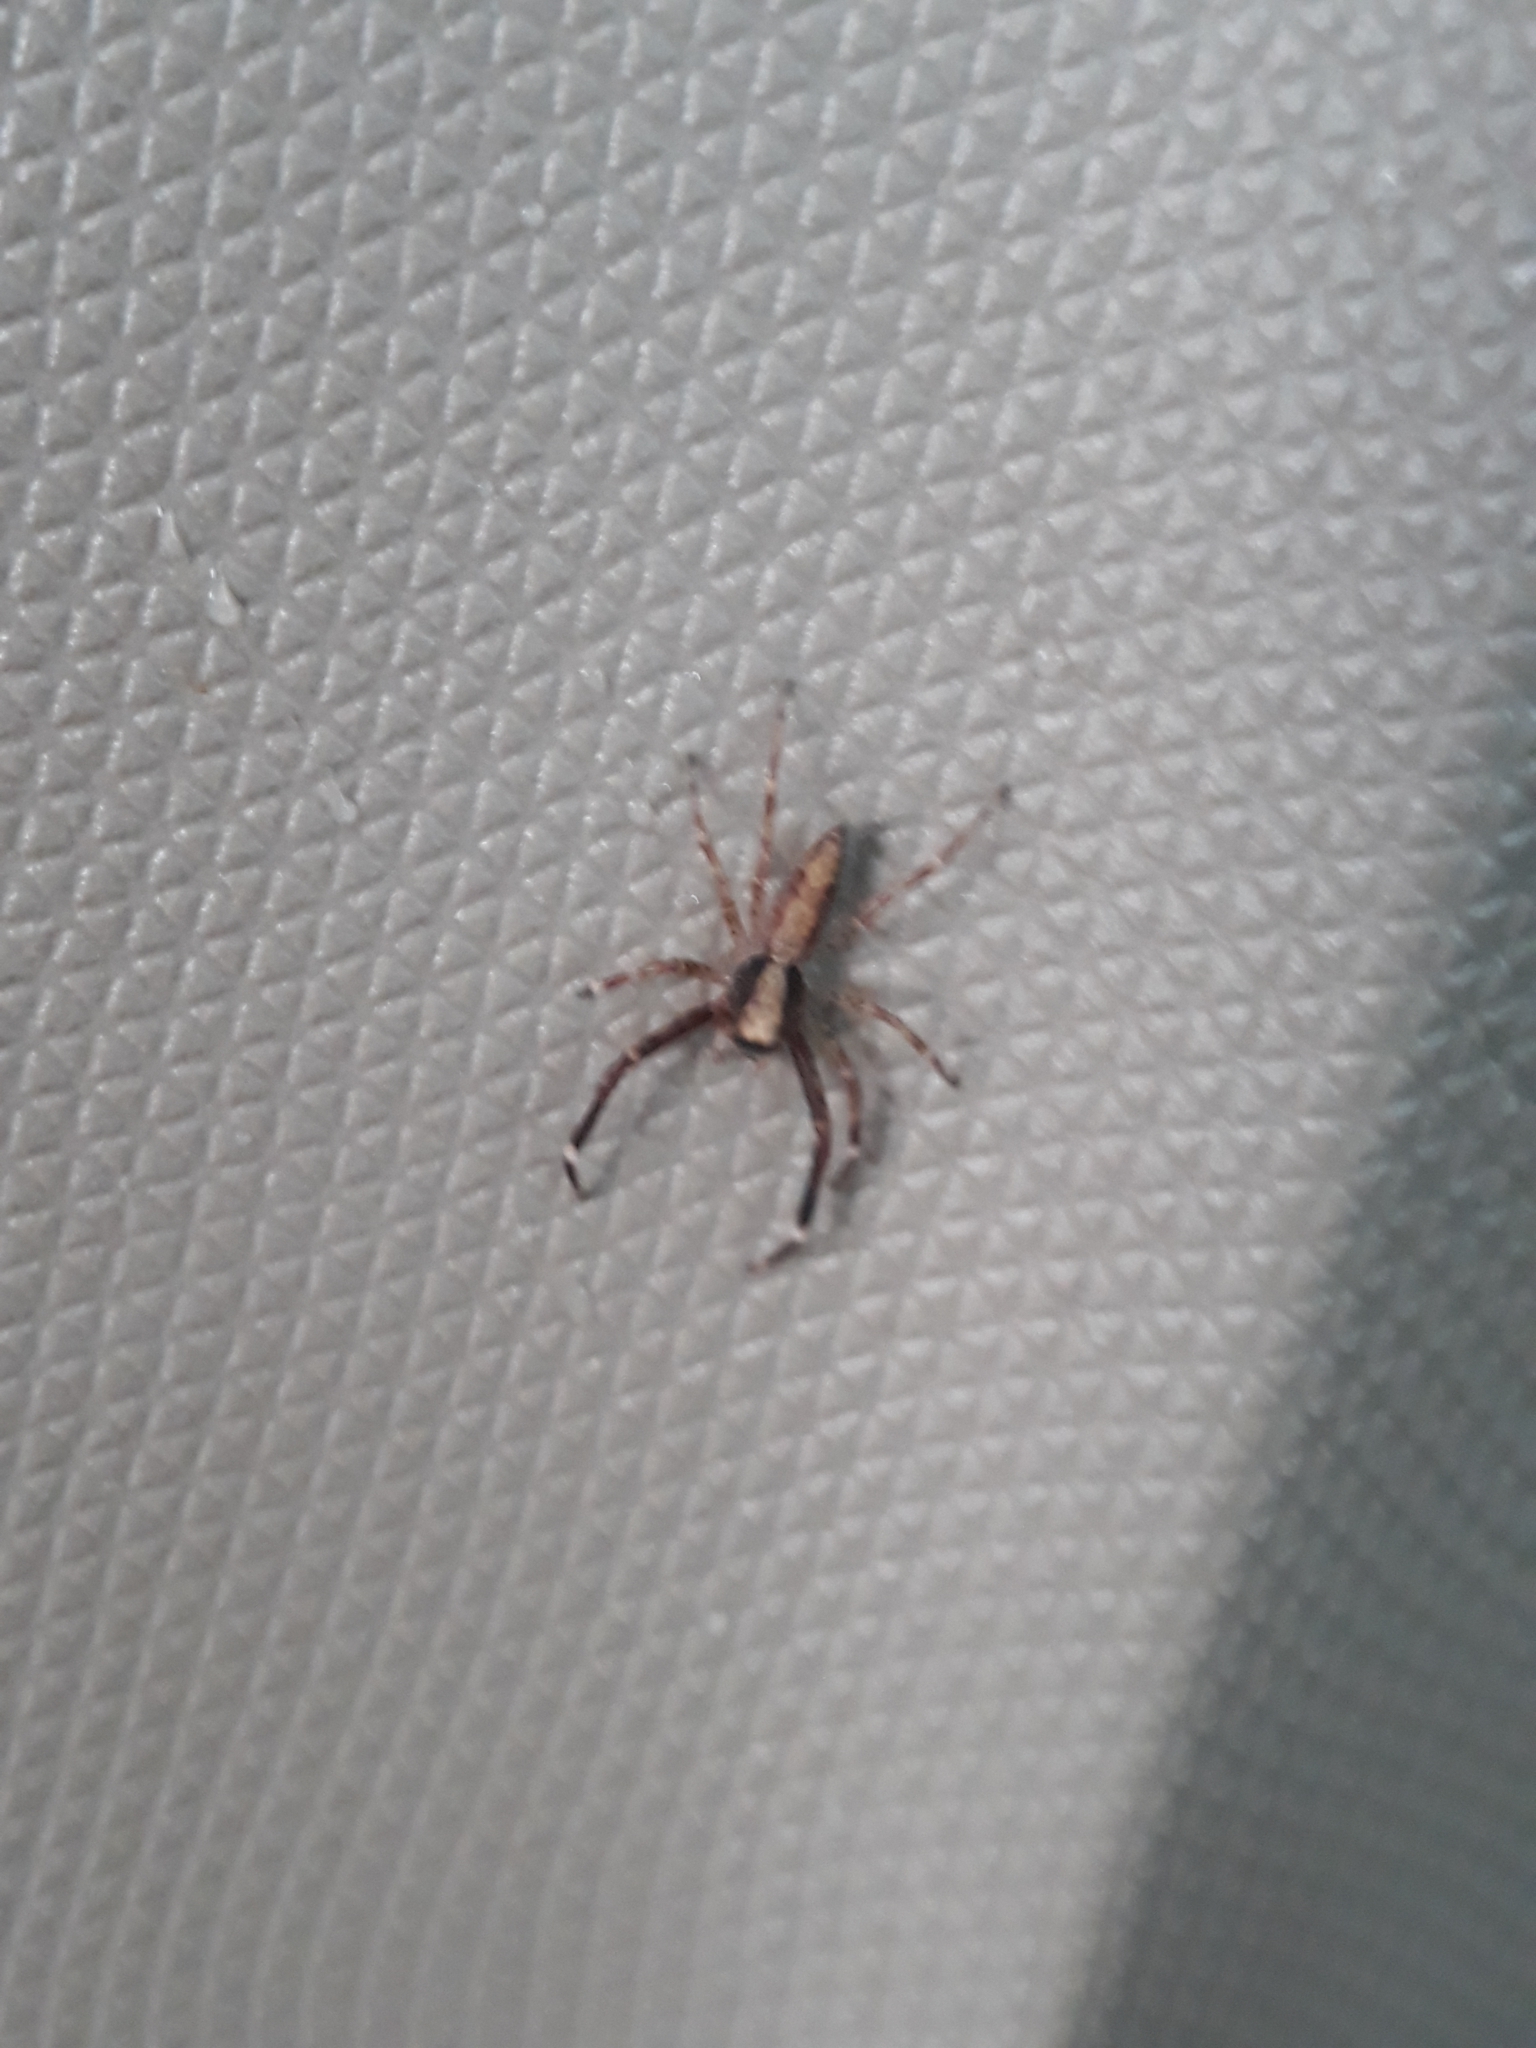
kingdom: Animalia
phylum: Arthropoda
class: Arachnida
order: Araneae
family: Salticidae
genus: Helpis
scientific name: Helpis minitabunda
